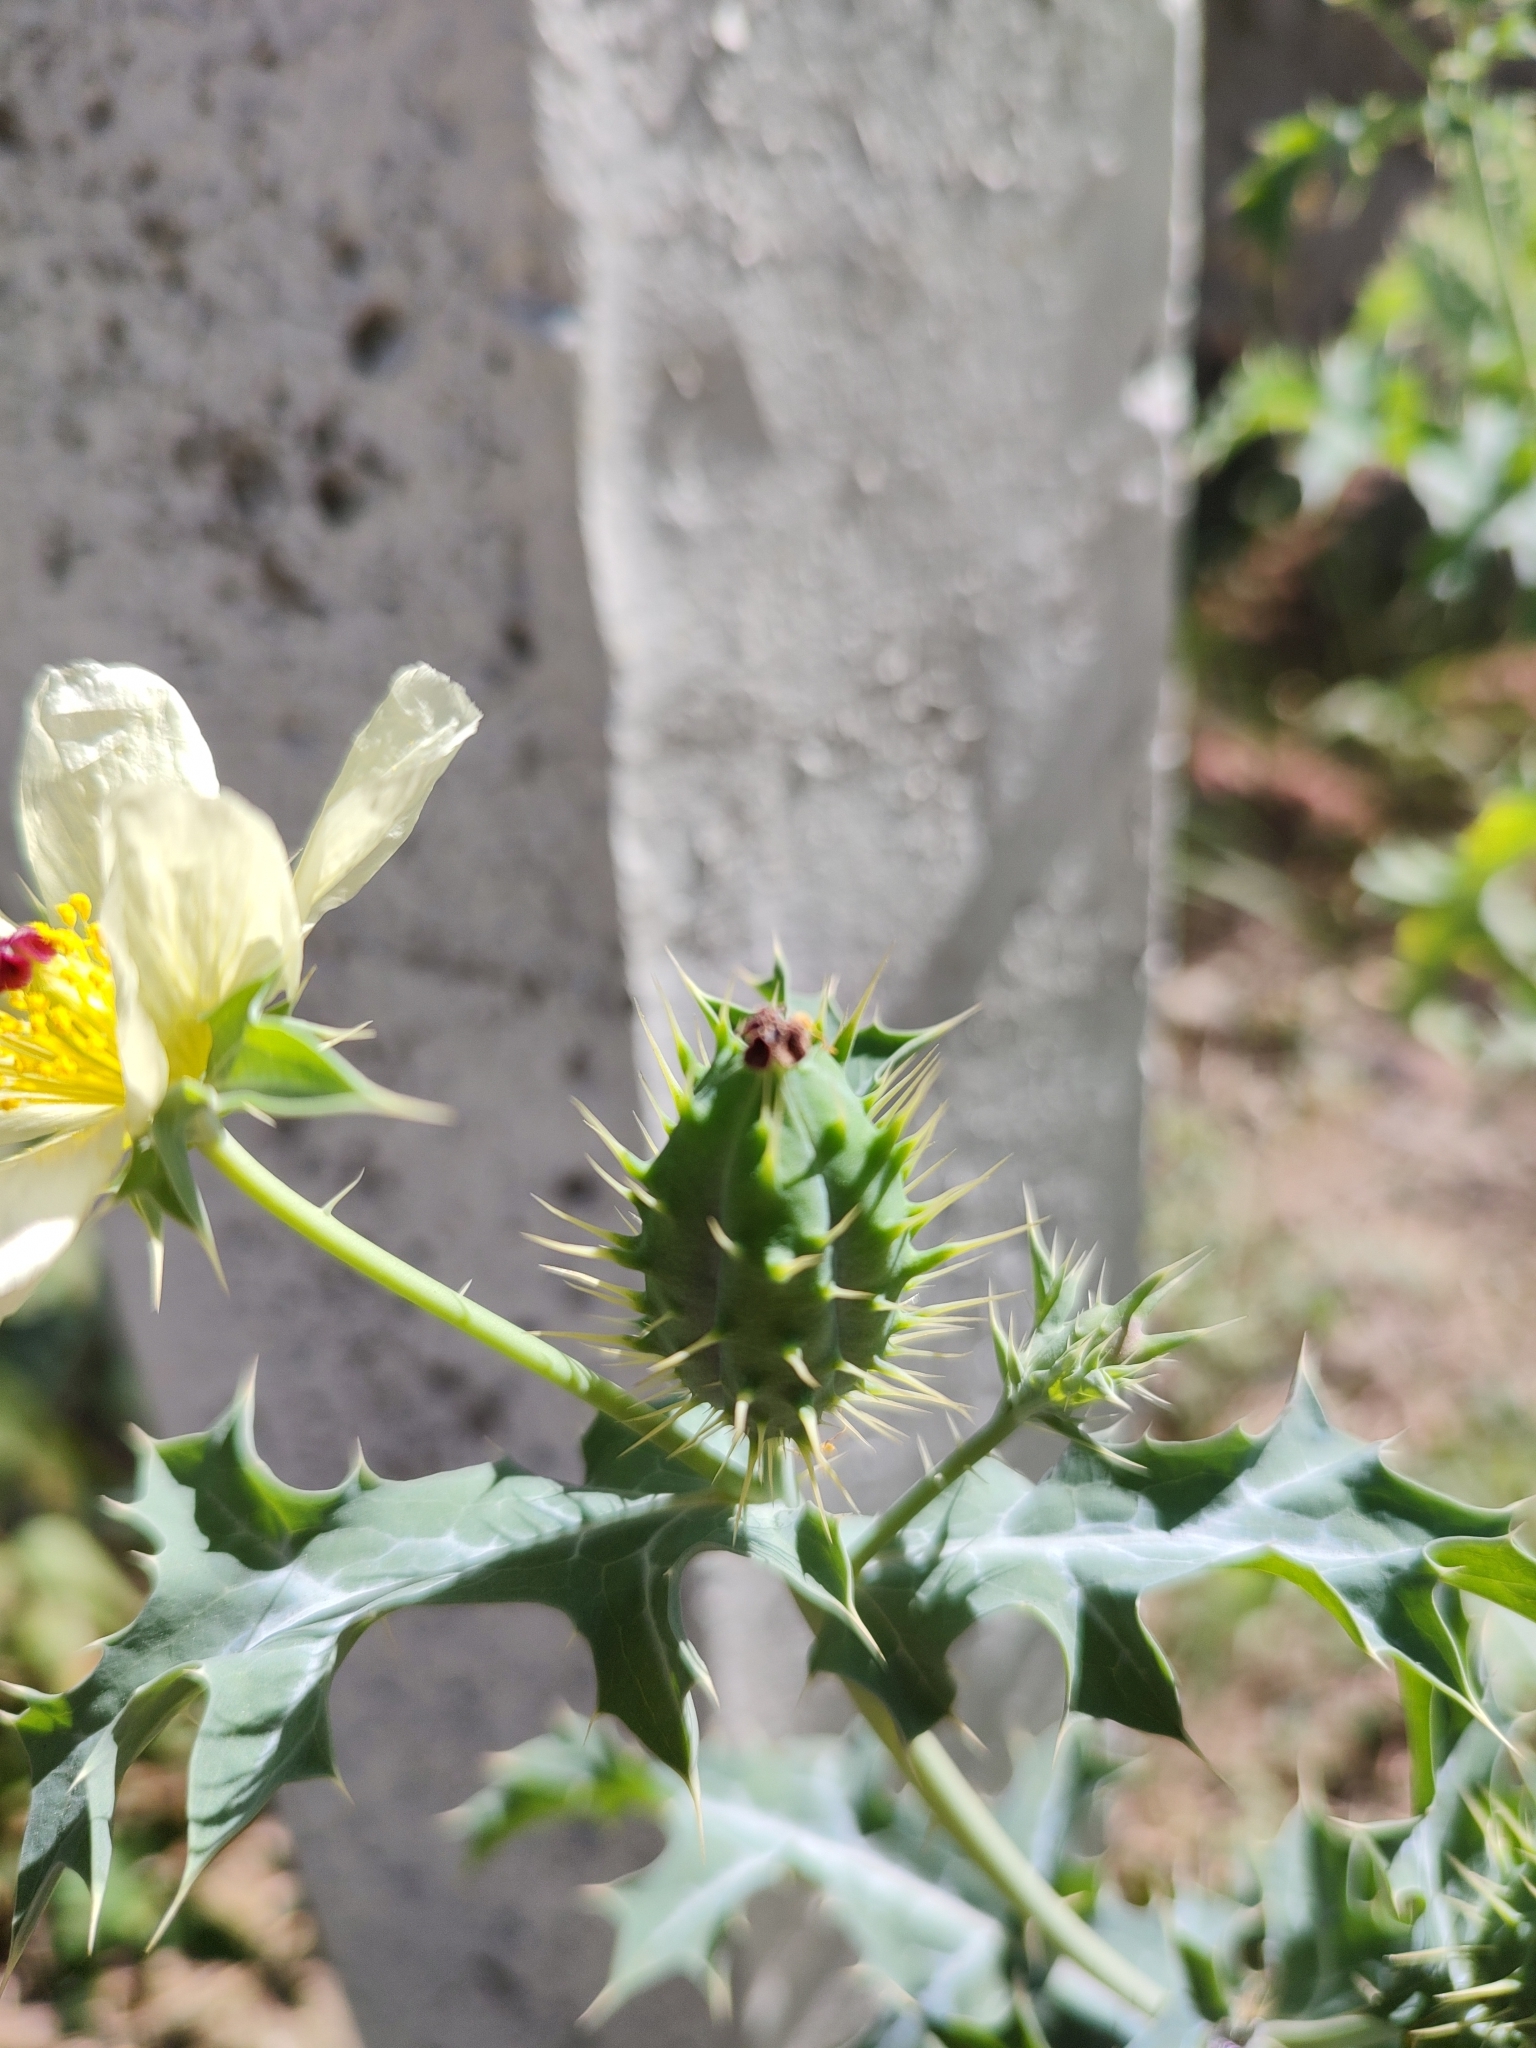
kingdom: Plantae
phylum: Tracheophyta
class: Magnoliopsida
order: Ranunculales
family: Papaveraceae
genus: Argemone
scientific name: Argemone ochroleuca
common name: White-flower mexican-poppy
